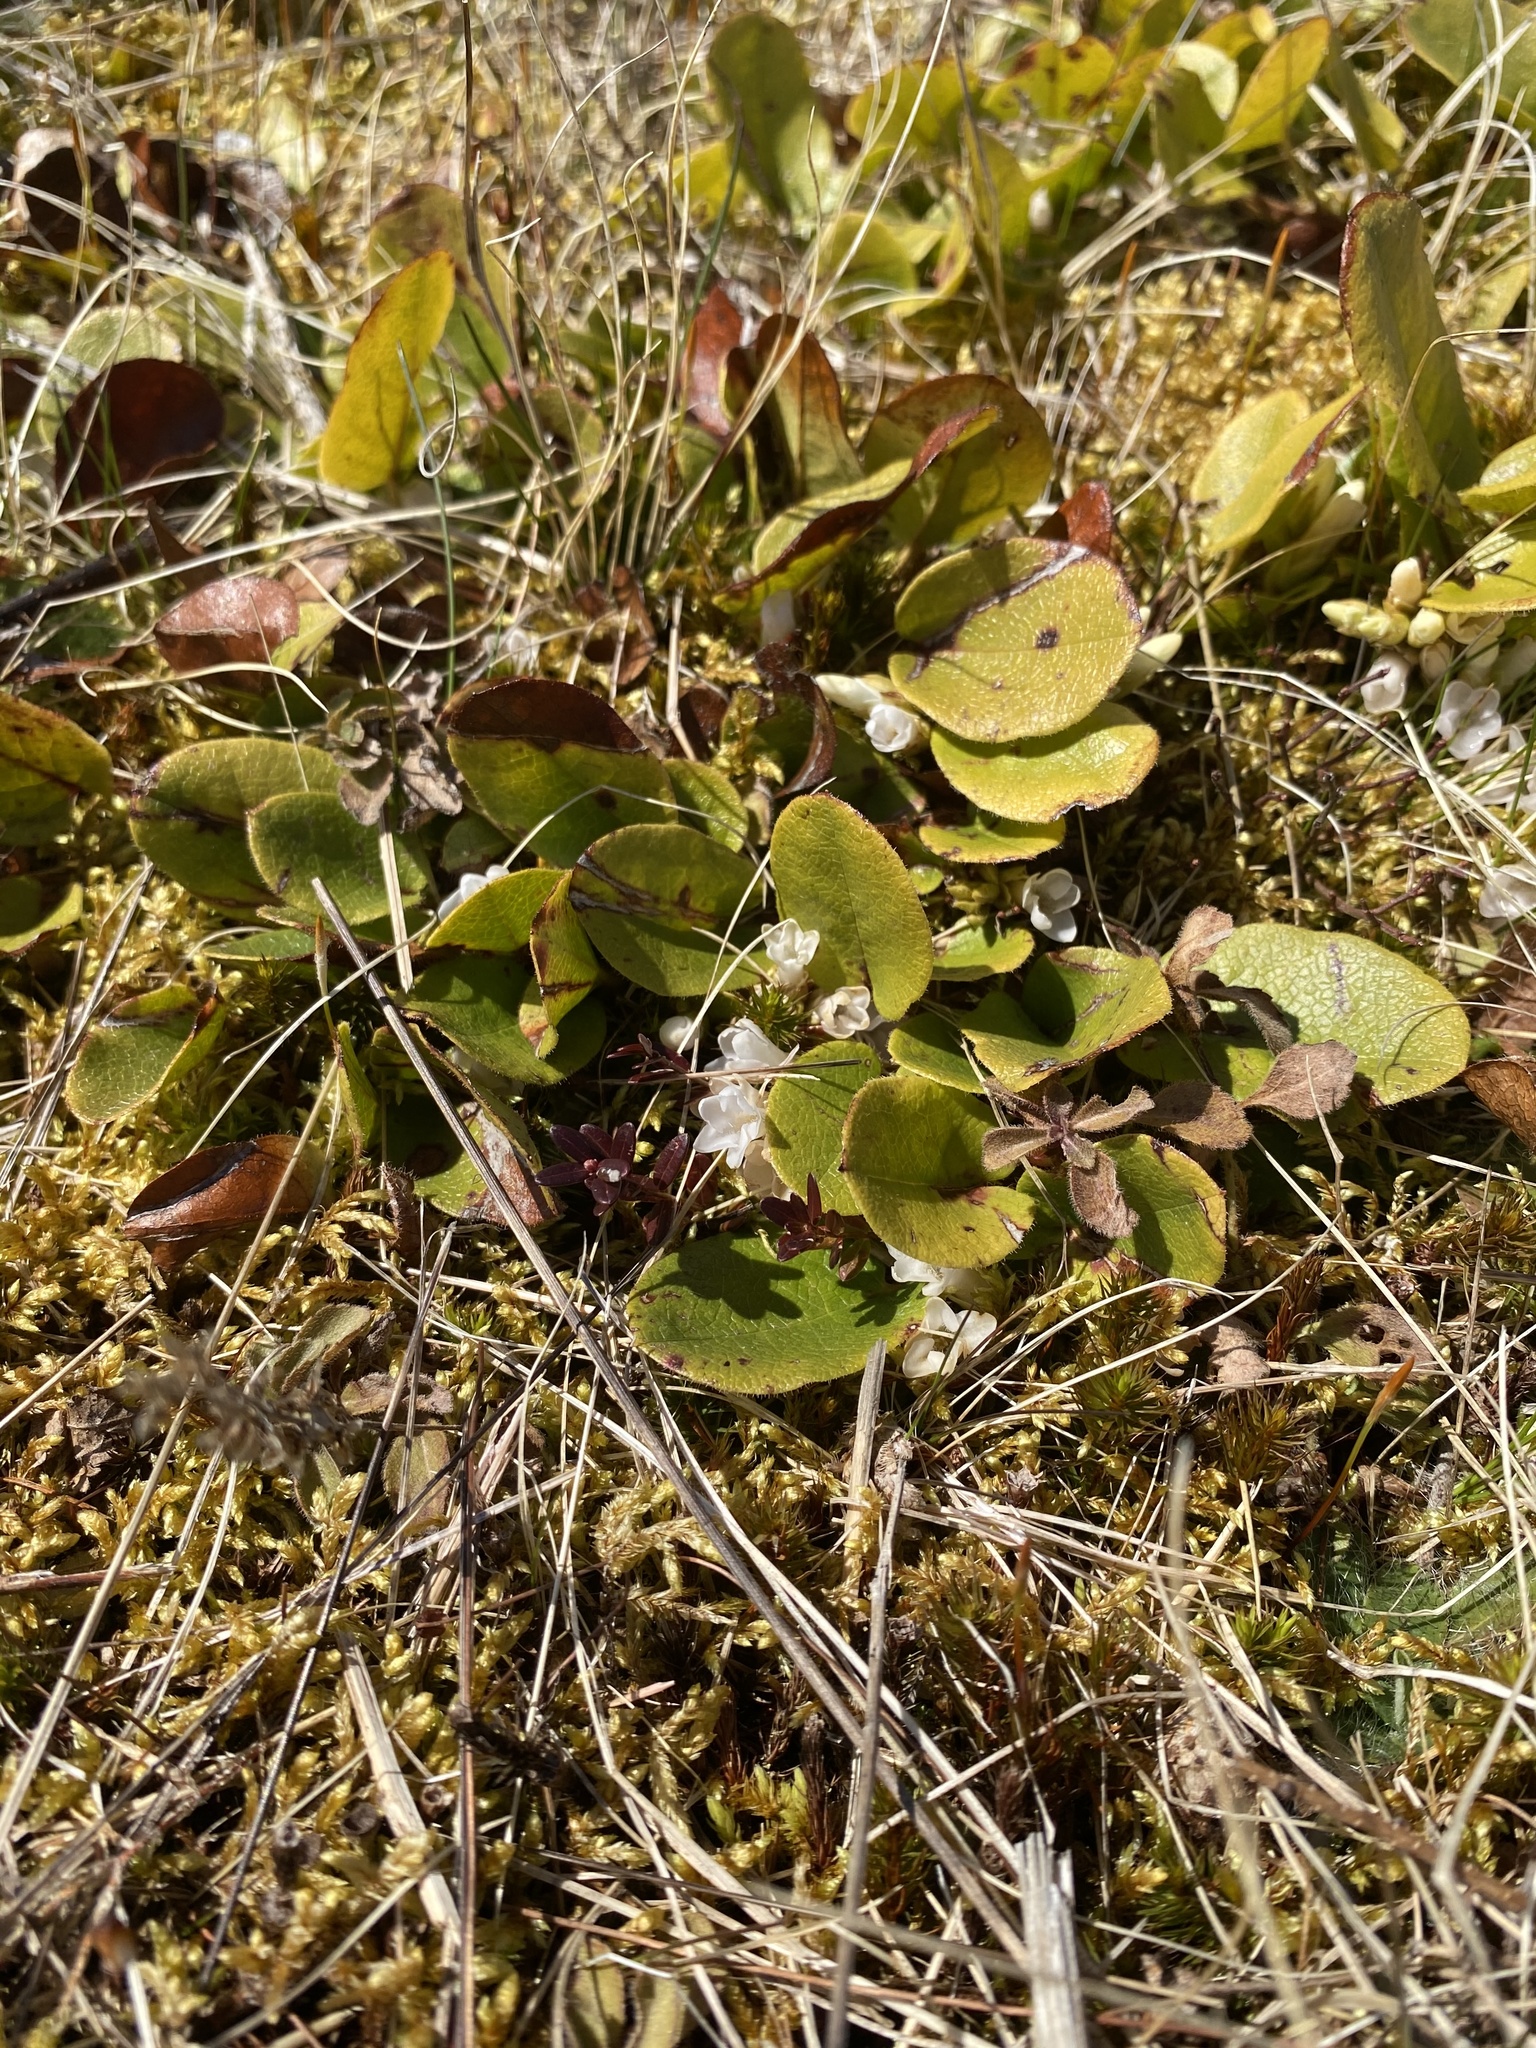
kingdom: Plantae
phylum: Tracheophyta
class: Magnoliopsida
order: Ericales
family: Ericaceae
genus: Epigaea
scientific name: Epigaea repens
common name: Gravelroot
